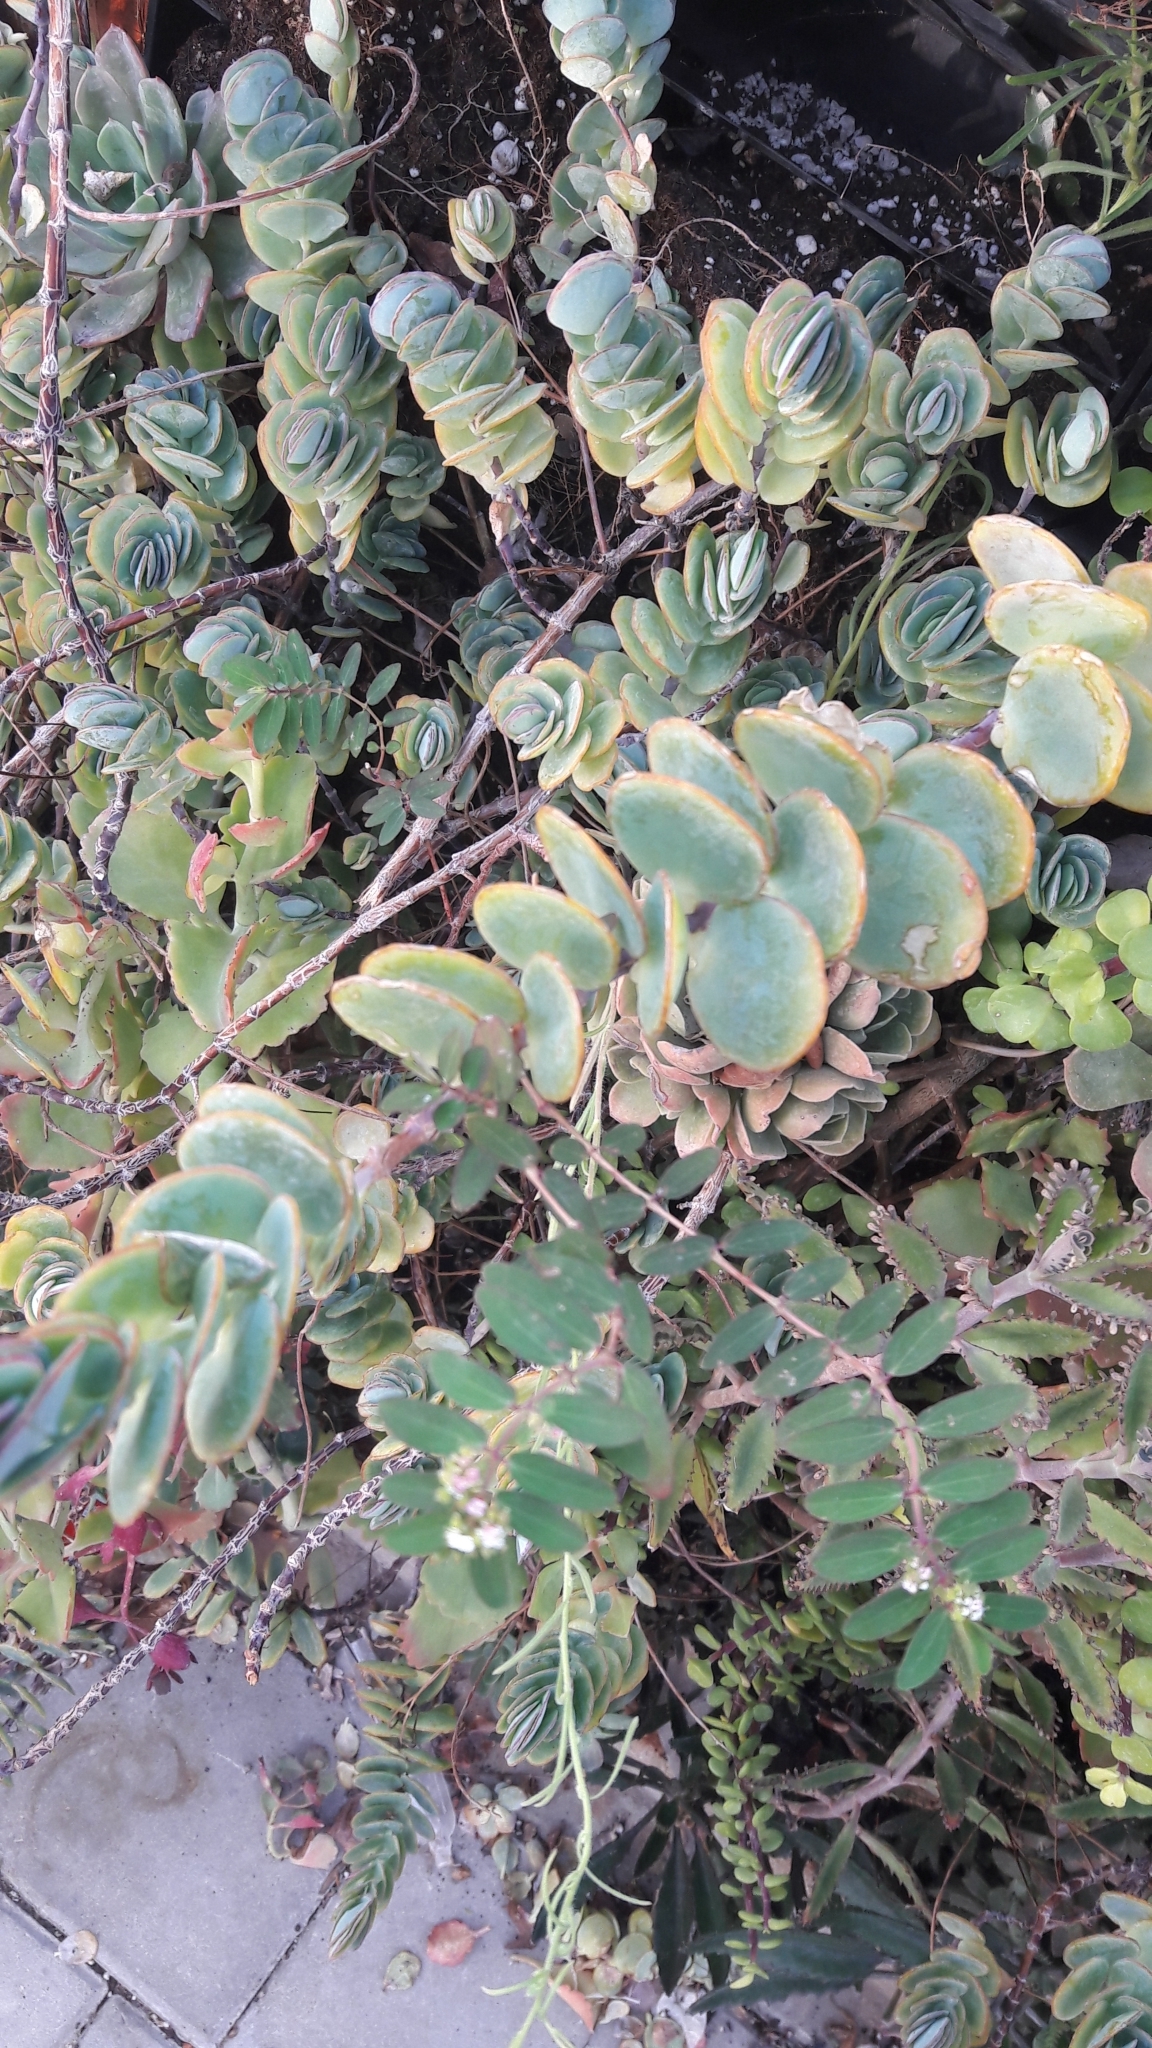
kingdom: Plantae
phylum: Tracheophyta
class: Magnoliopsida
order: Malpighiales
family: Euphorbiaceae
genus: Euphorbia
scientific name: Euphorbia hypericifolia
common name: Graceful sandmat
